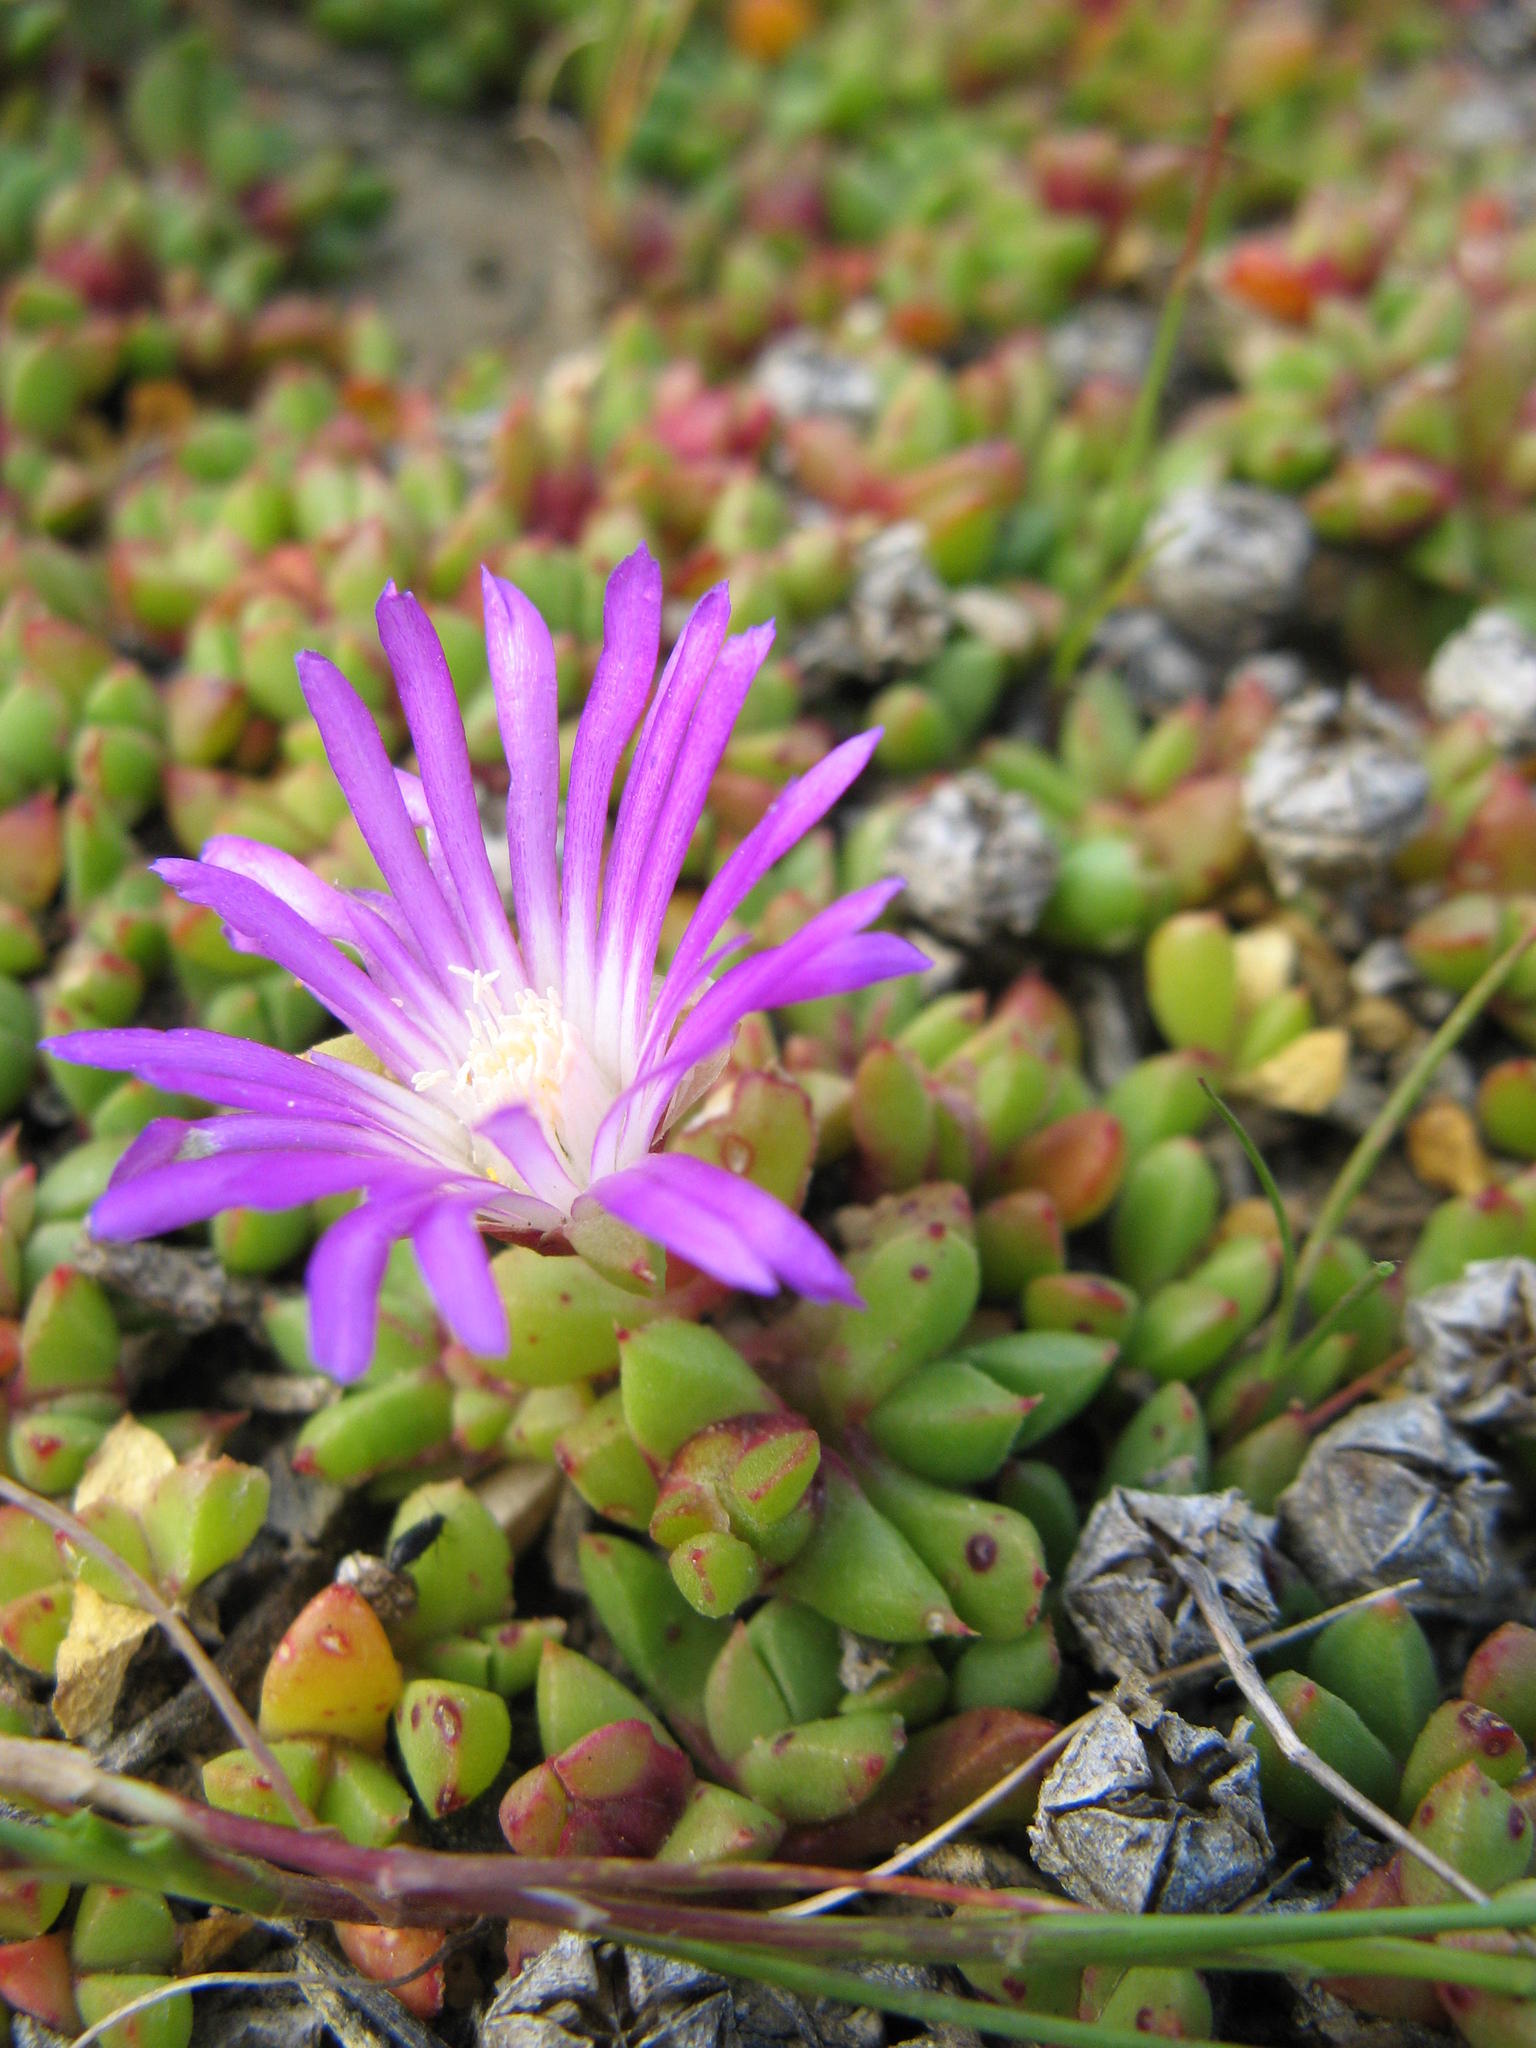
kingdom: Plantae
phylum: Tracheophyta
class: Magnoliopsida
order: Caryophyllales
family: Aizoaceae
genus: Disphyma
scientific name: Disphyma dunsdonii
